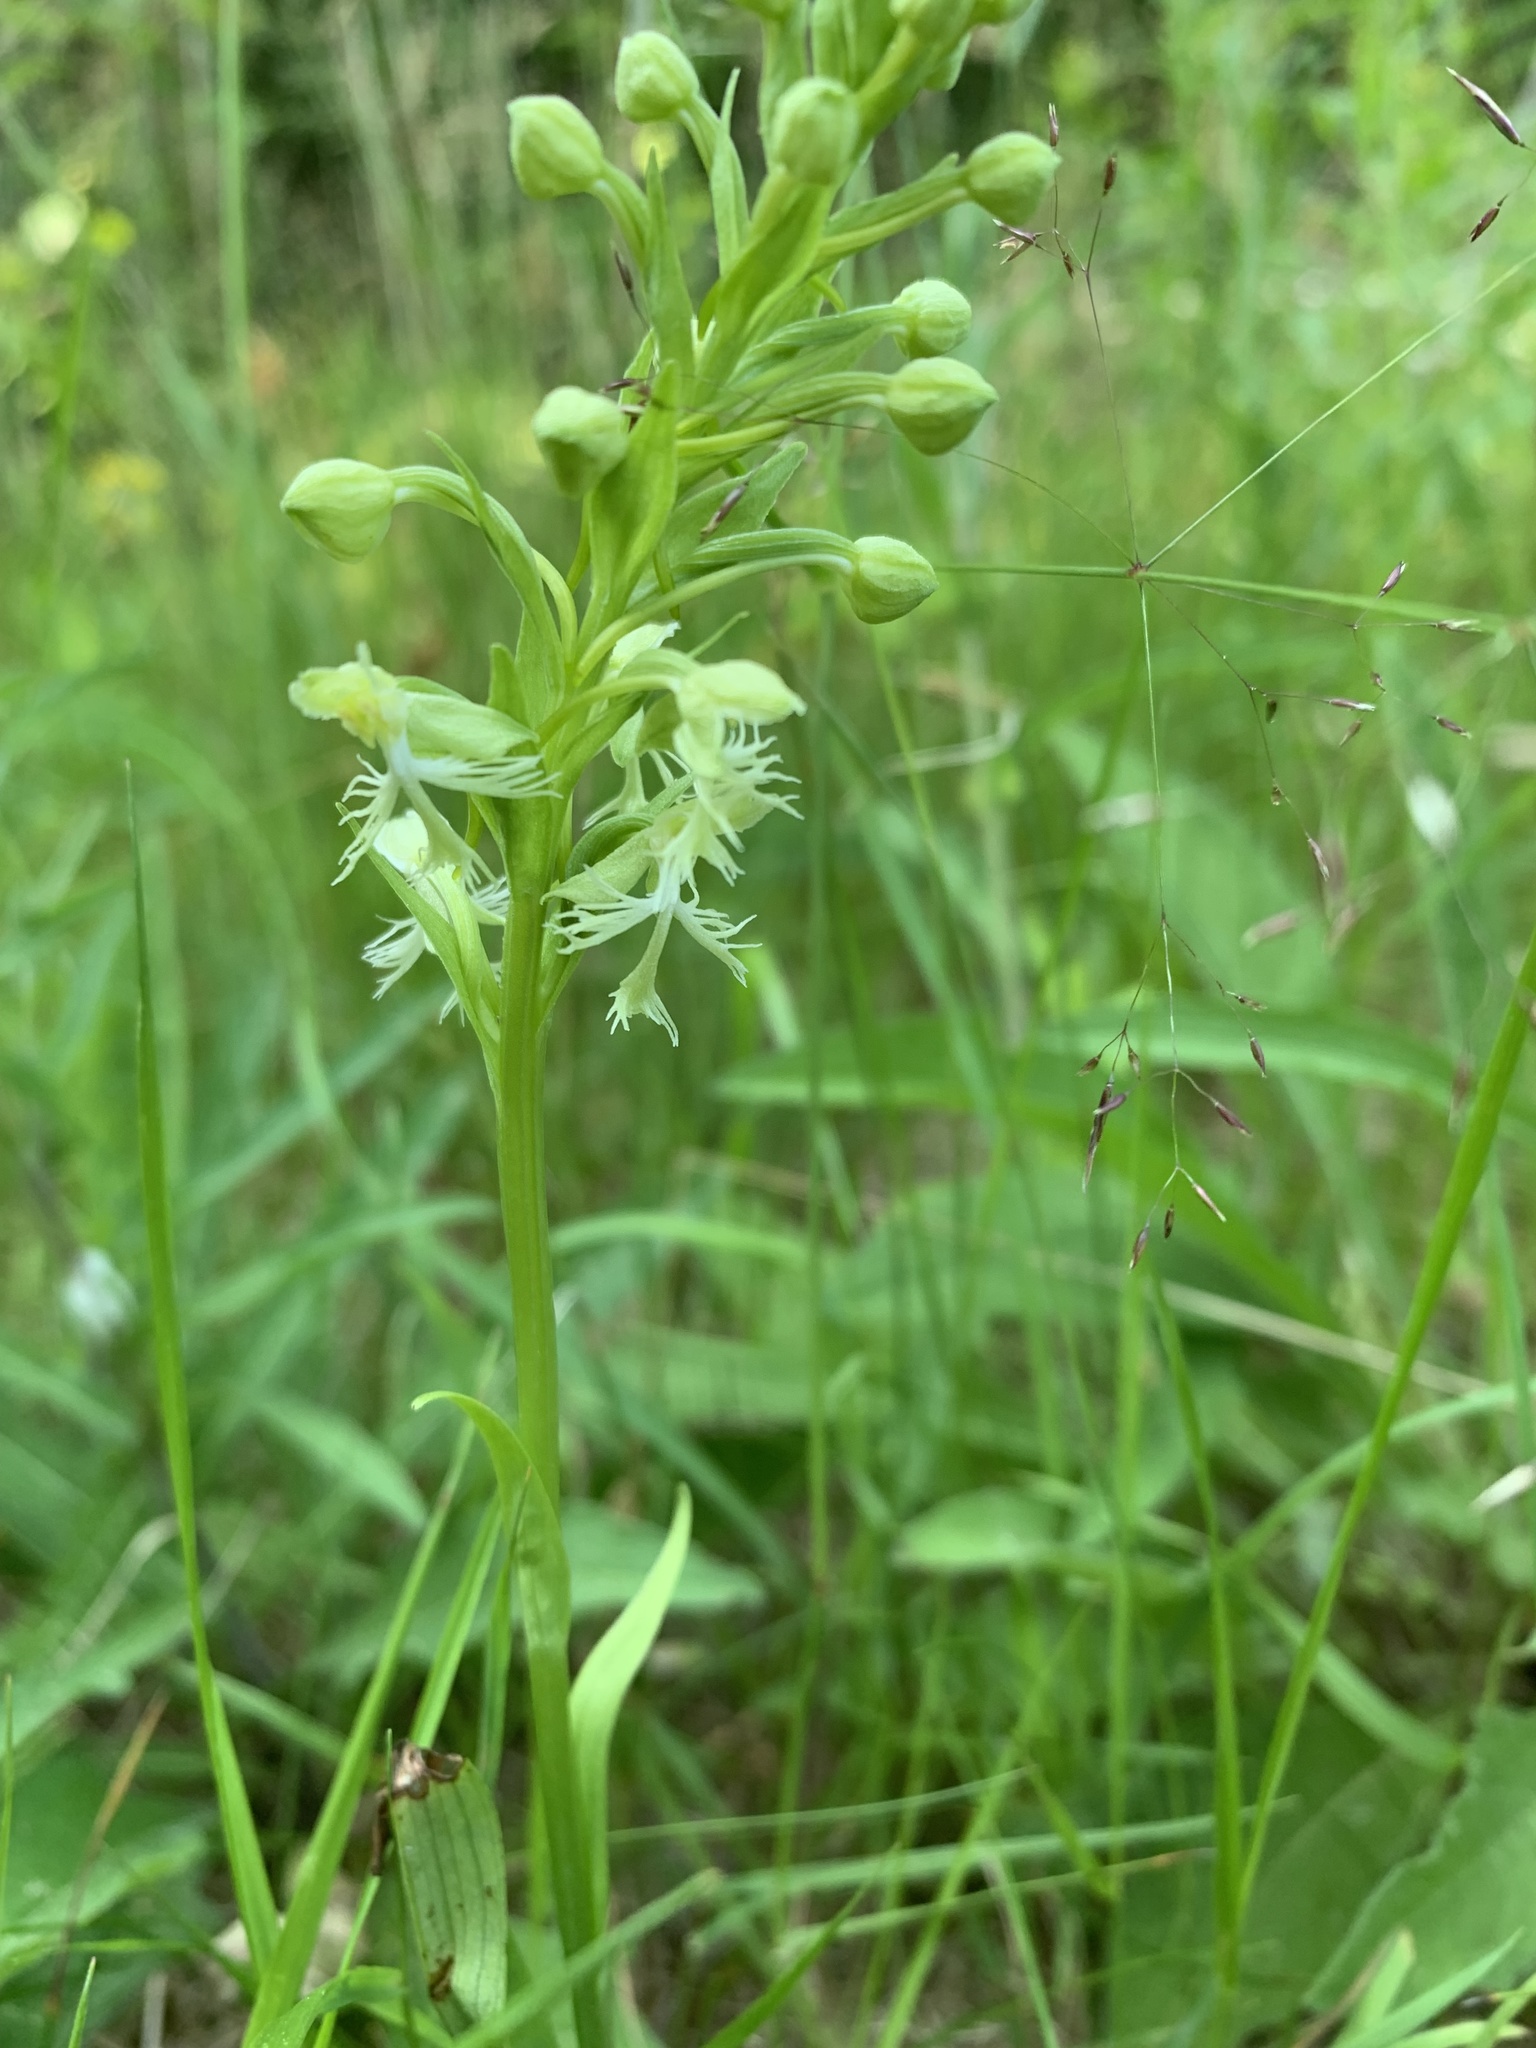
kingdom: Plantae
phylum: Tracheophyta
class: Liliopsida
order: Asparagales
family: Orchidaceae
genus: Platanthera
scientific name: Platanthera lacera
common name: Green fringed orchid
